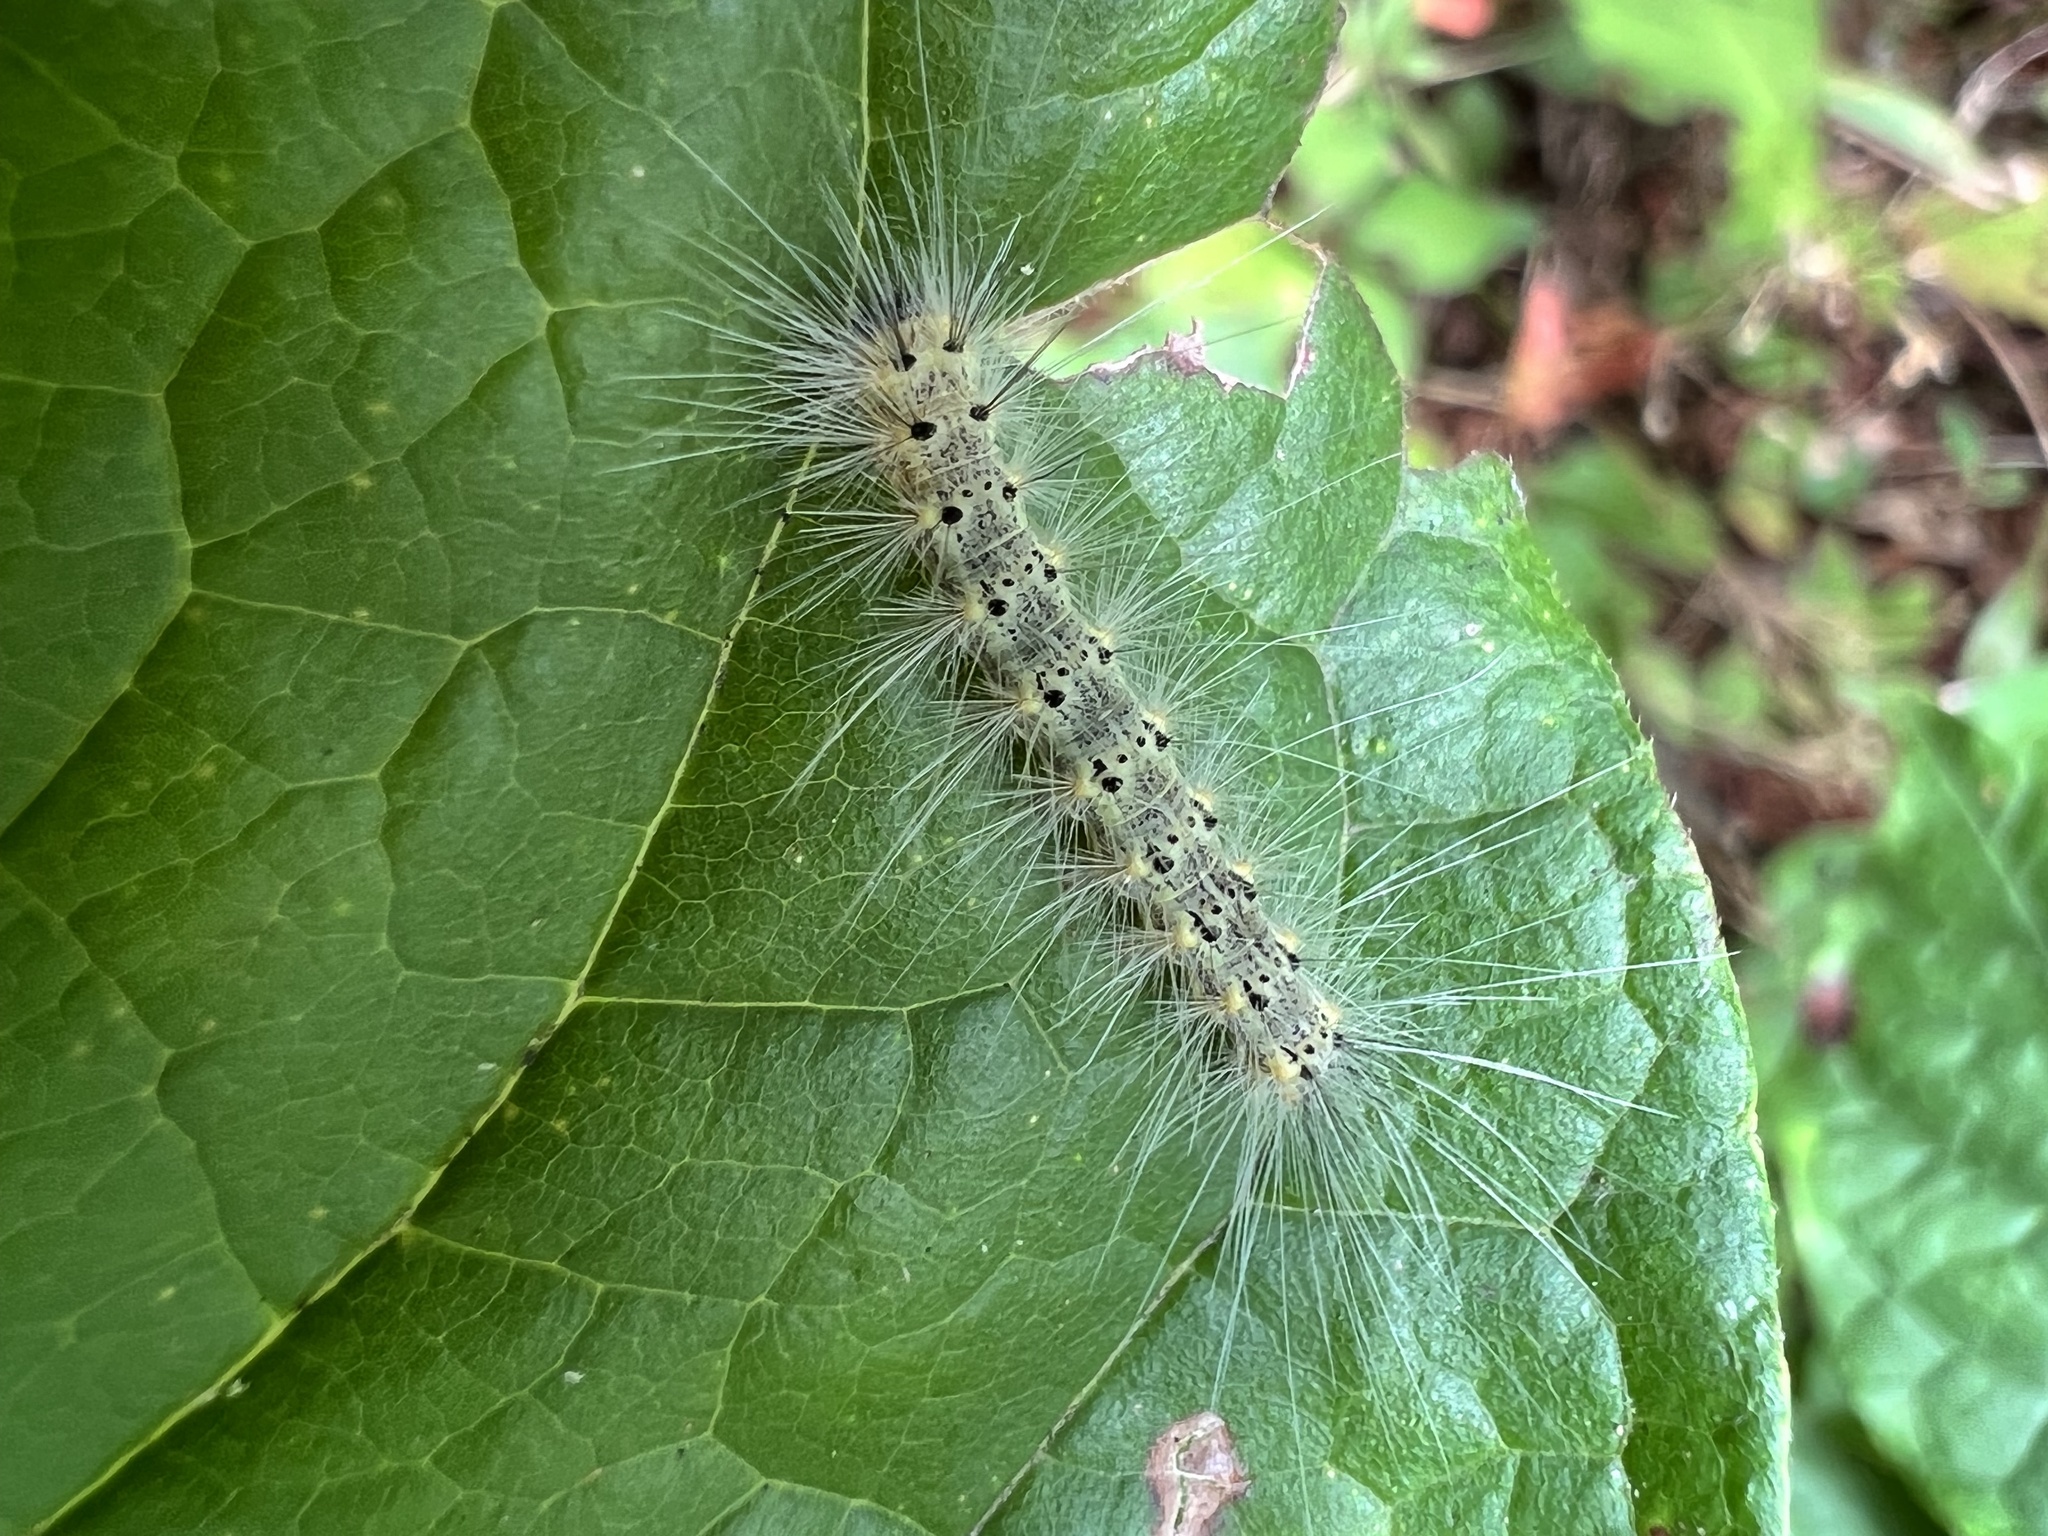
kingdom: Animalia
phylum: Arthropoda
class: Insecta
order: Lepidoptera
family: Erebidae
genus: Hyphantria
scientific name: Hyphantria cunea
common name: American white moth
